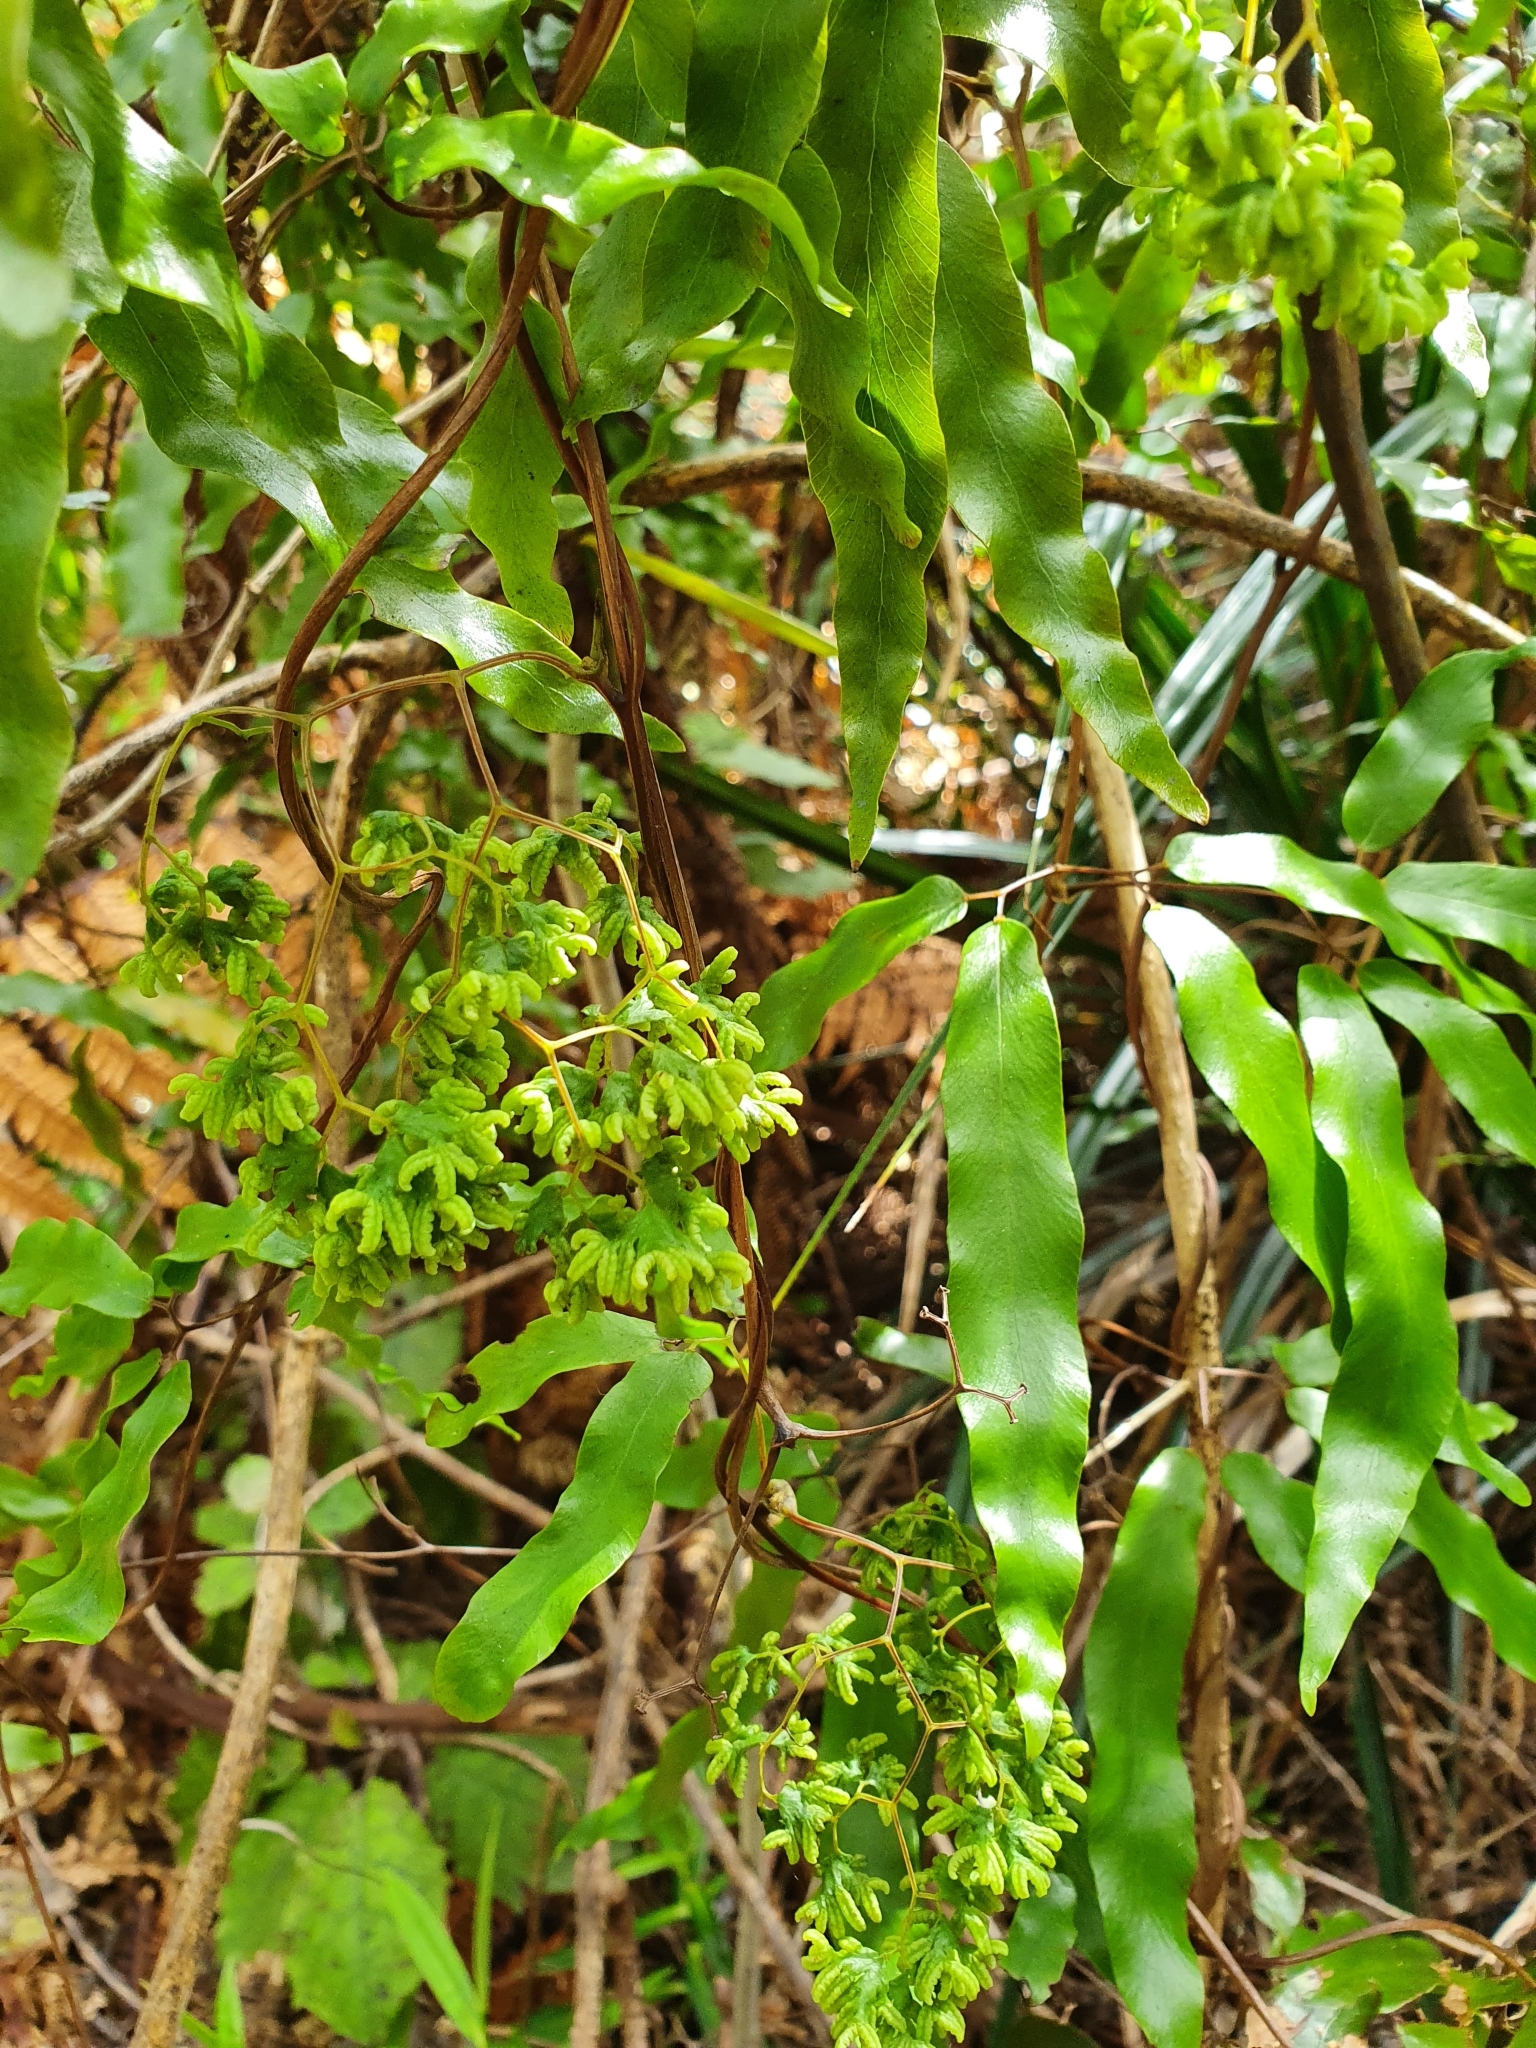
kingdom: Plantae
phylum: Tracheophyta
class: Polypodiopsida
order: Schizaeales
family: Lygodiaceae
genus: Lygodium
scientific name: Lygodium articulatum
